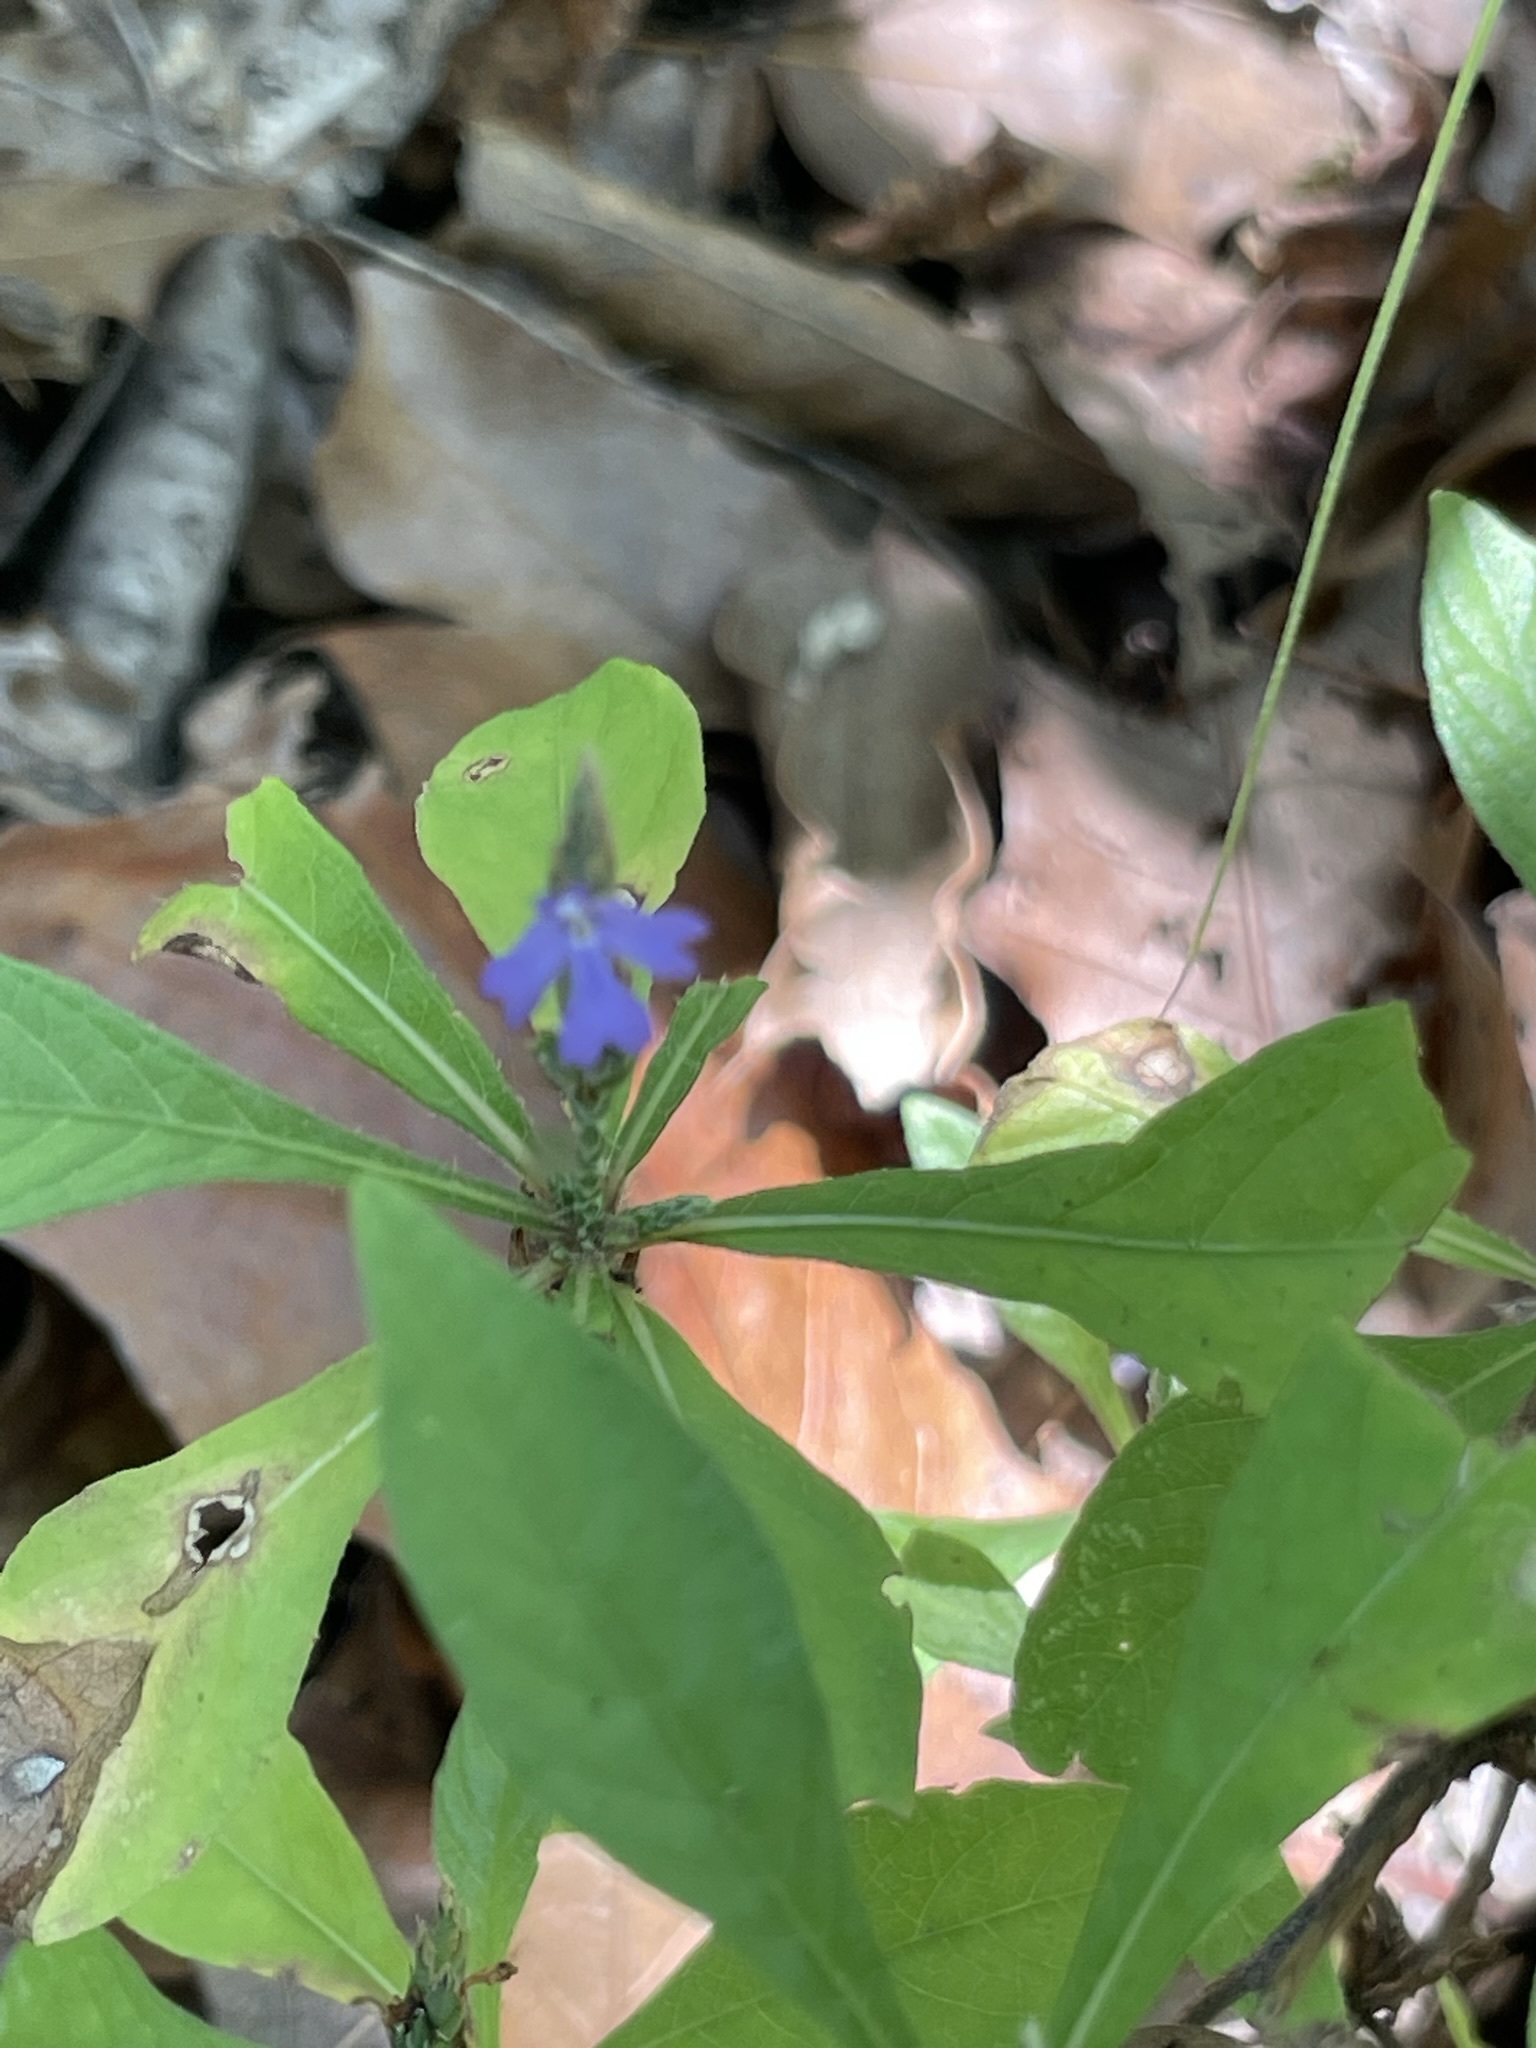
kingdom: Plantae
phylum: Tracheophyta
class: Magnoliopsida
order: Lamiales
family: Acanthaceae
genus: Elytraria
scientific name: Elytraria imbricata
